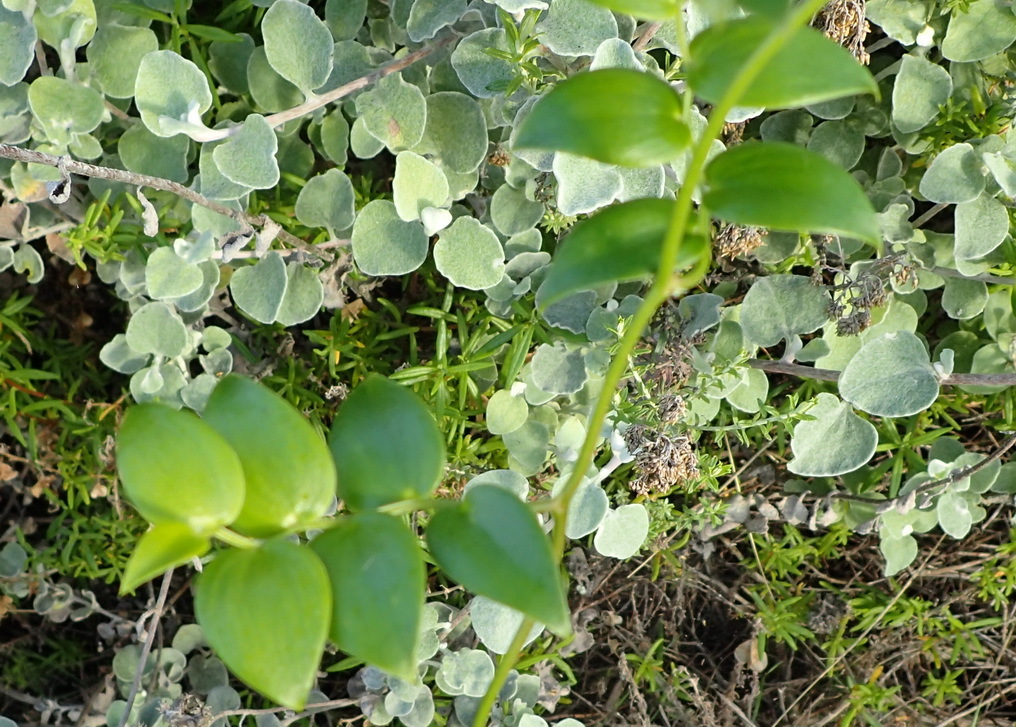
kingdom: Plantae
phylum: Tracheophyta
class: Liliopsida
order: Asparagales
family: Asparagaceae
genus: Asparagus
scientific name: Asparagus asparagoides
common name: African asparagus fern
